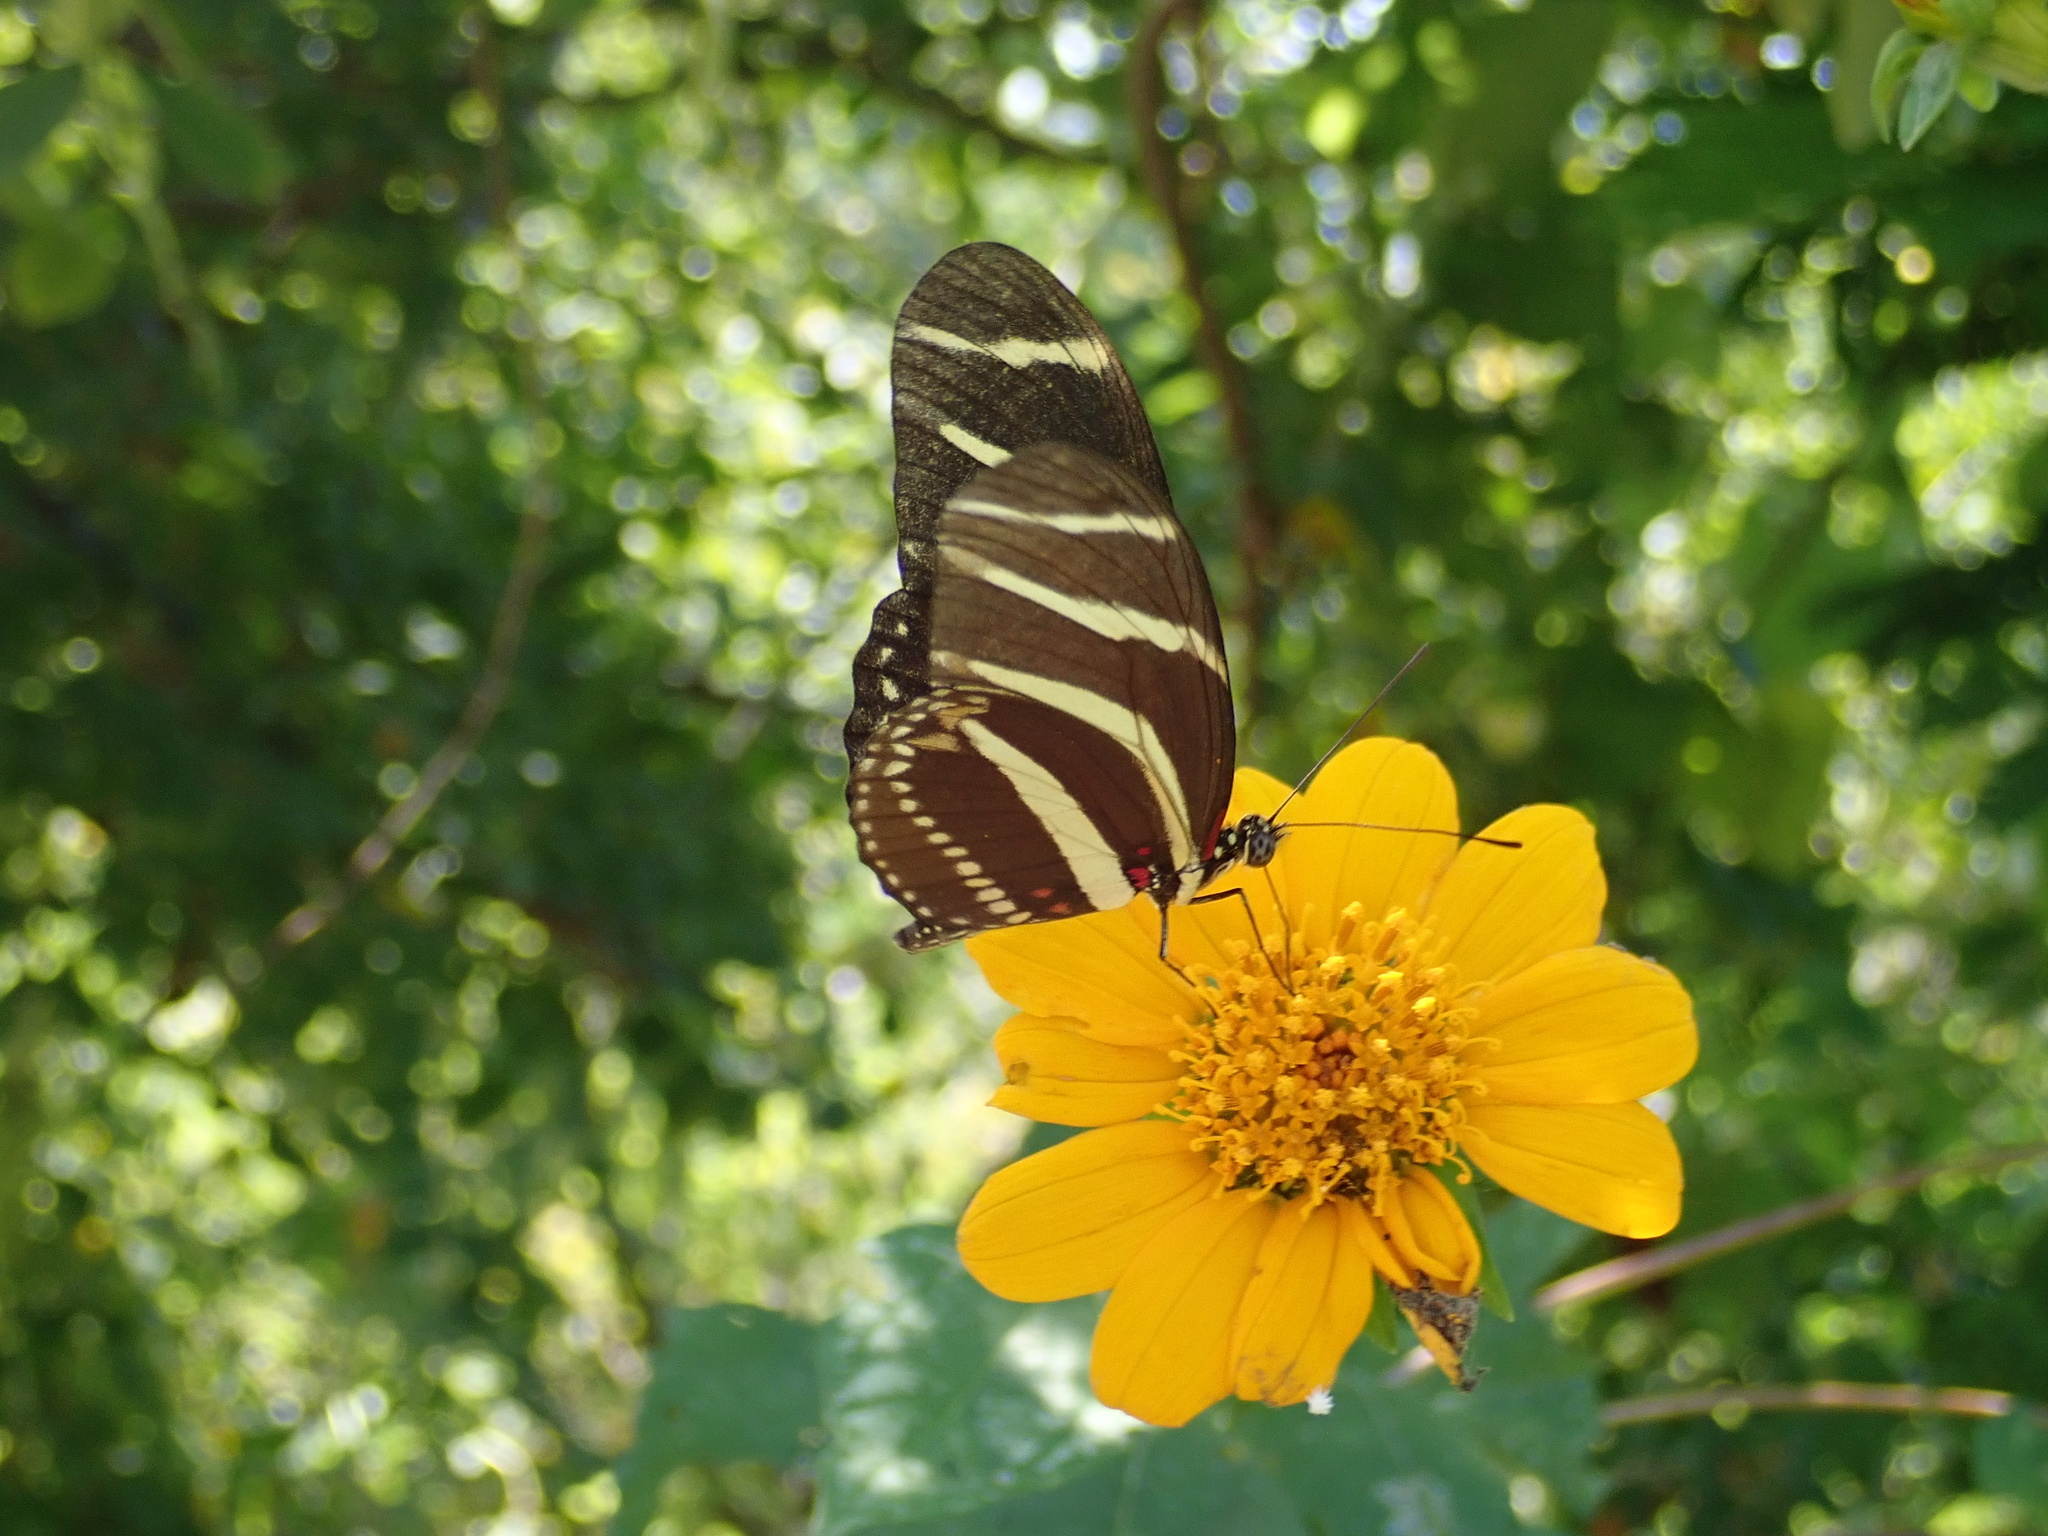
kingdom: Animalia
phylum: Arthropoda
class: Insecta
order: Lepidoptera
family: Nymphalidae
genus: Heliconius
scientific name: Heliconius charithonia
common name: Zebra long wing
